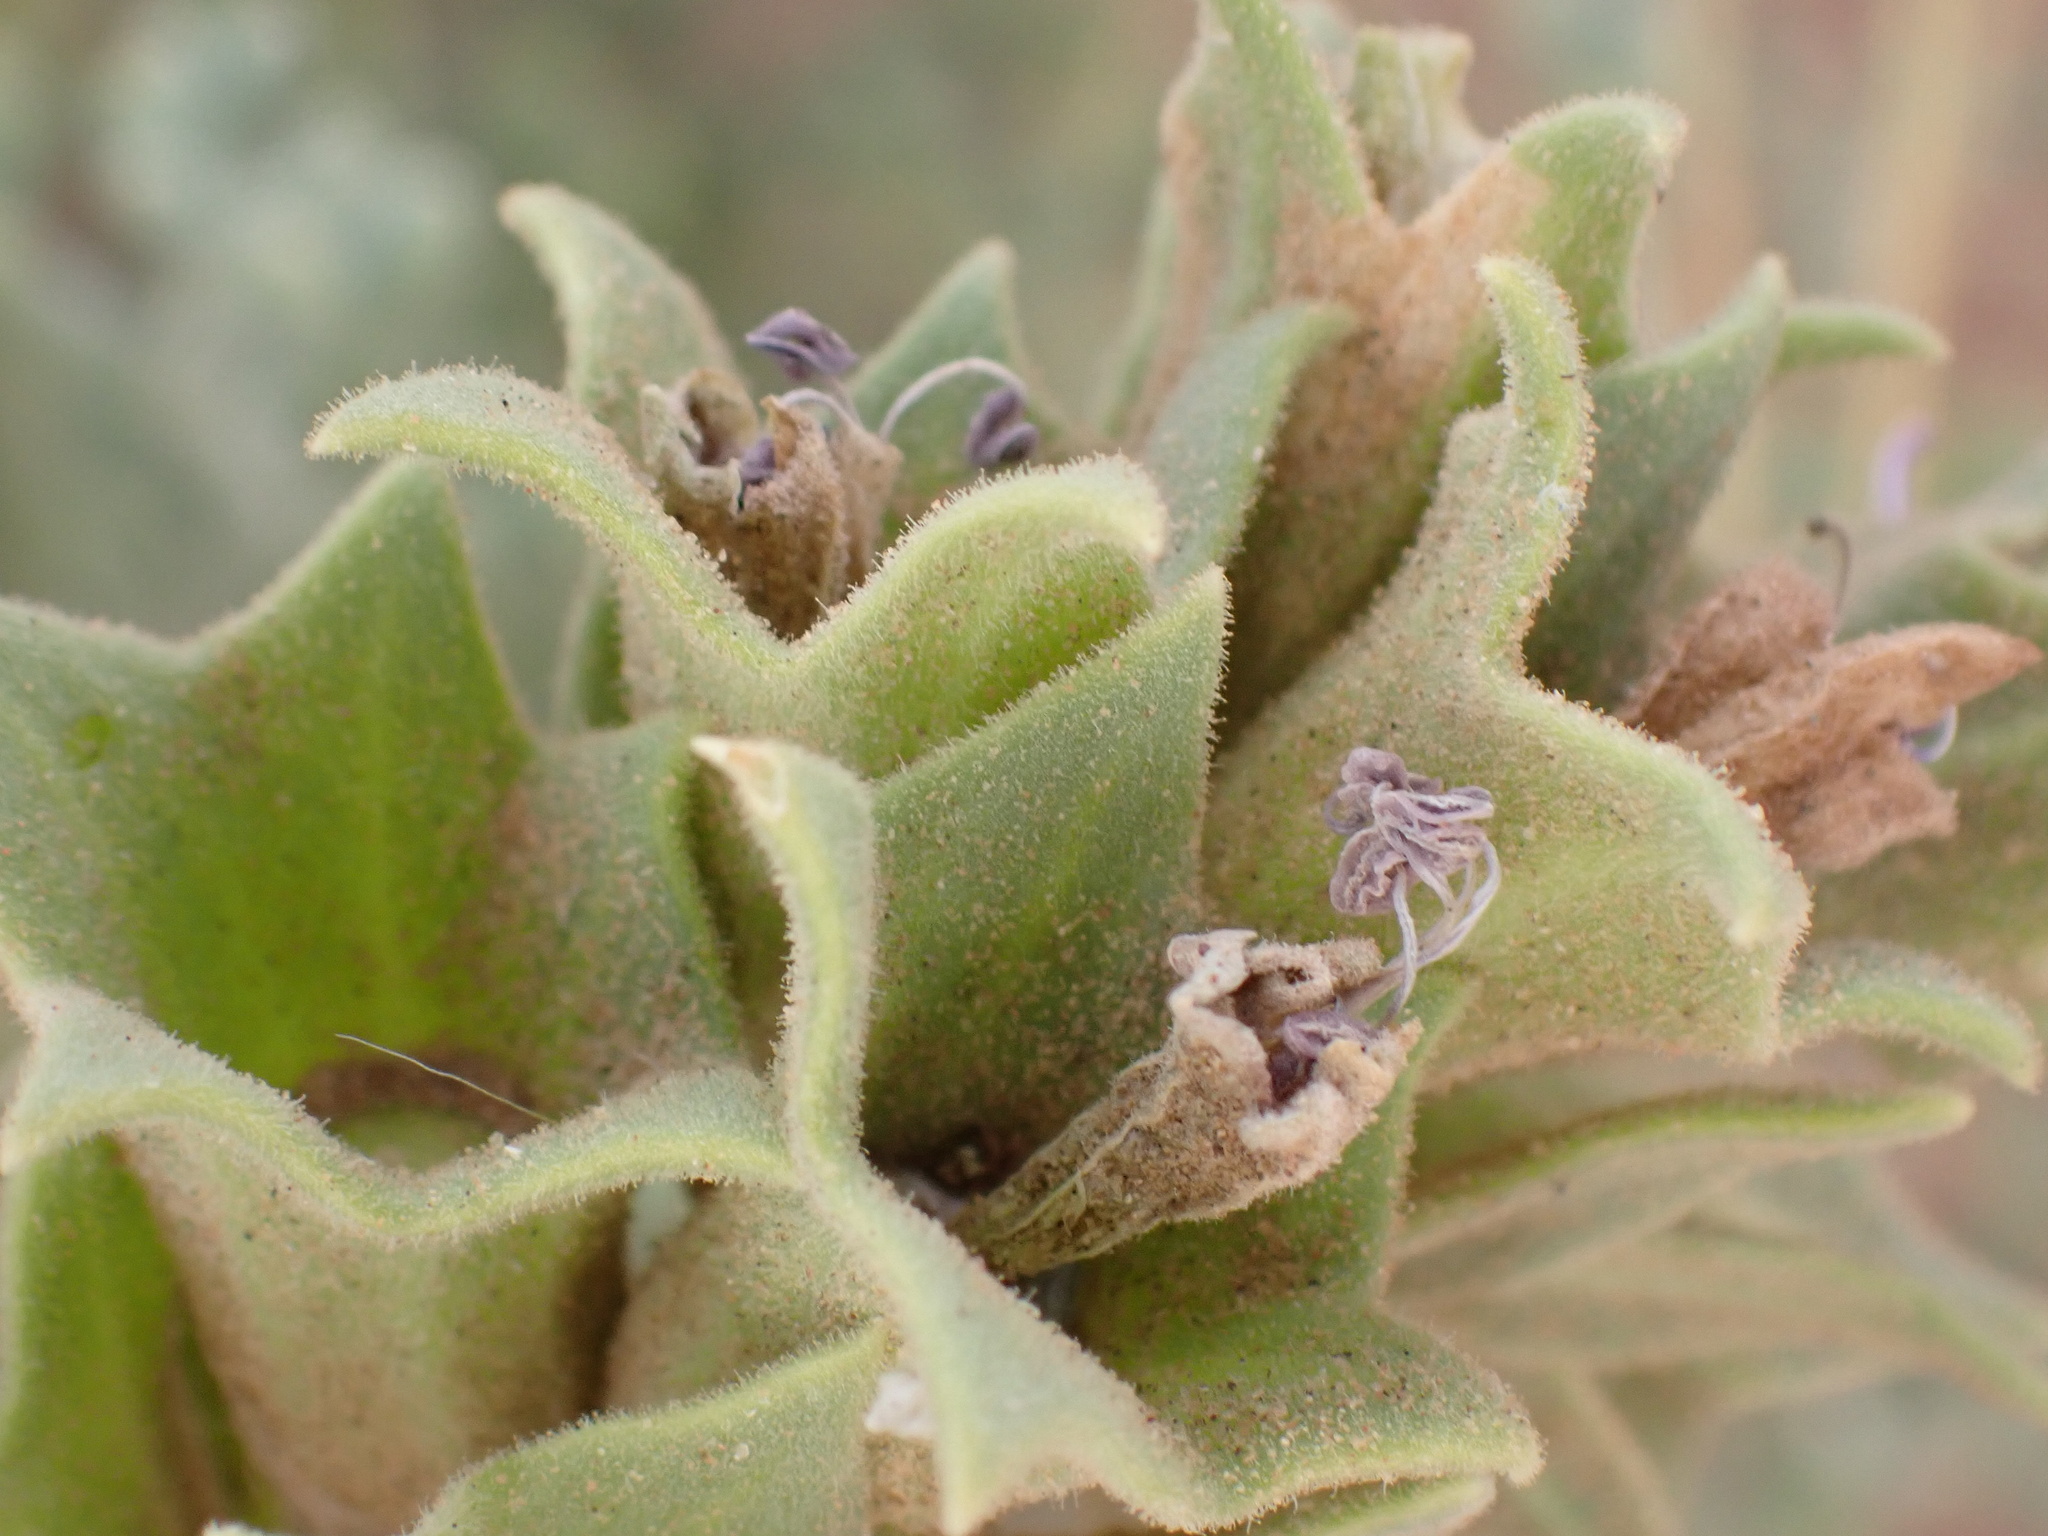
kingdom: Plantae
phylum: Tracheophyta
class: Magnoliopsida
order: Solanales
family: Solanaceae
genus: Hyoscyamus
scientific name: Hyoscyamus muticus
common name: Henbane
